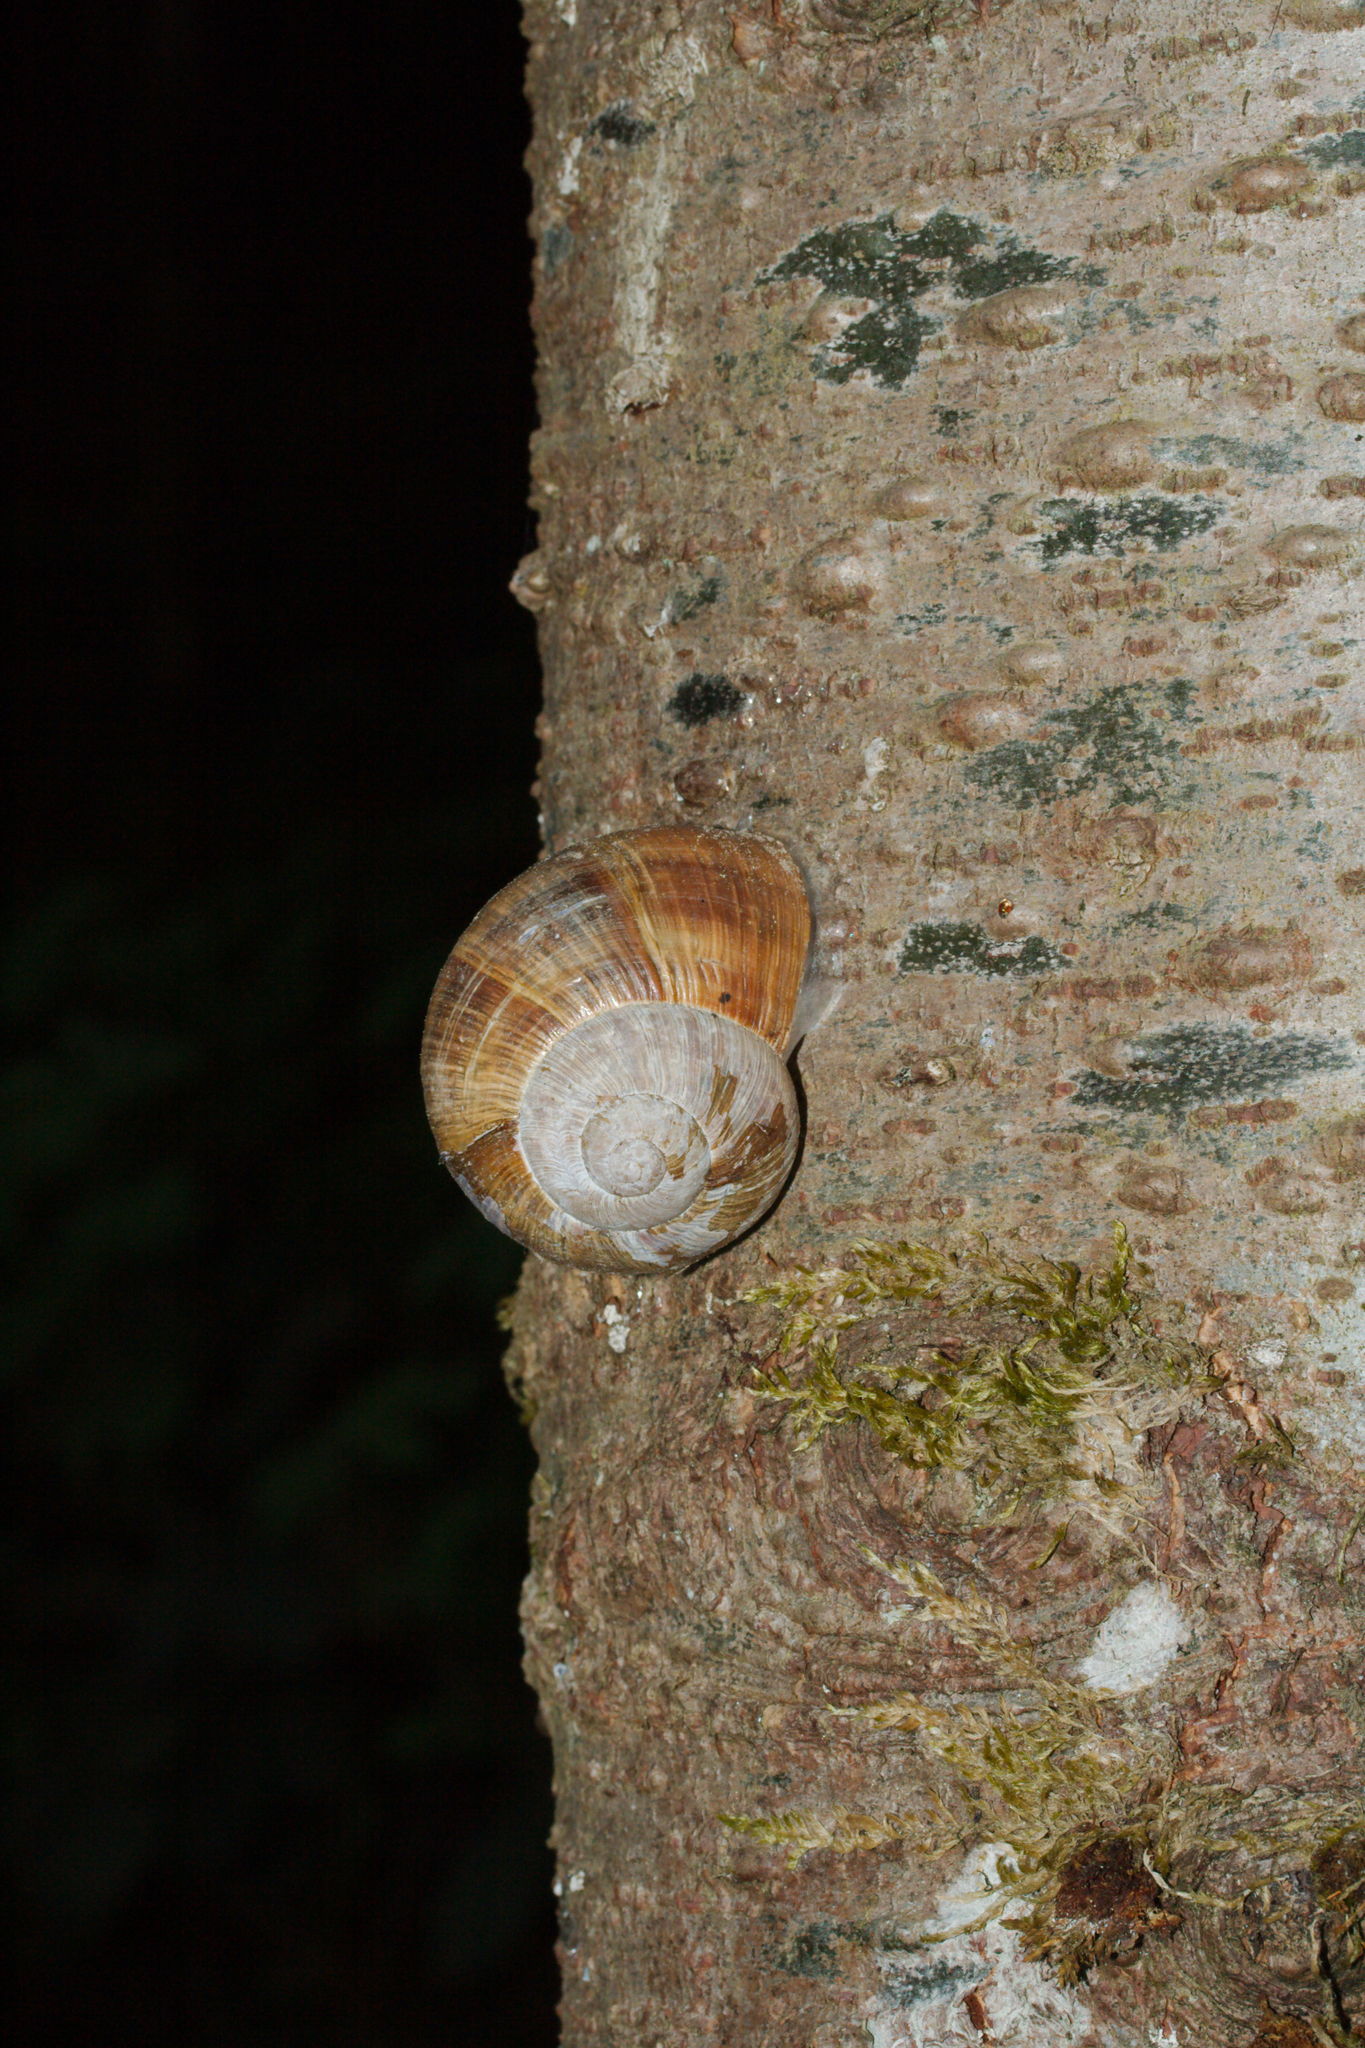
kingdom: Animalia
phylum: Mollusca
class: Gastropoda
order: Stylommatophora
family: Helicidae
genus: Helix
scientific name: Helix pomatia
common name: Roman snail
